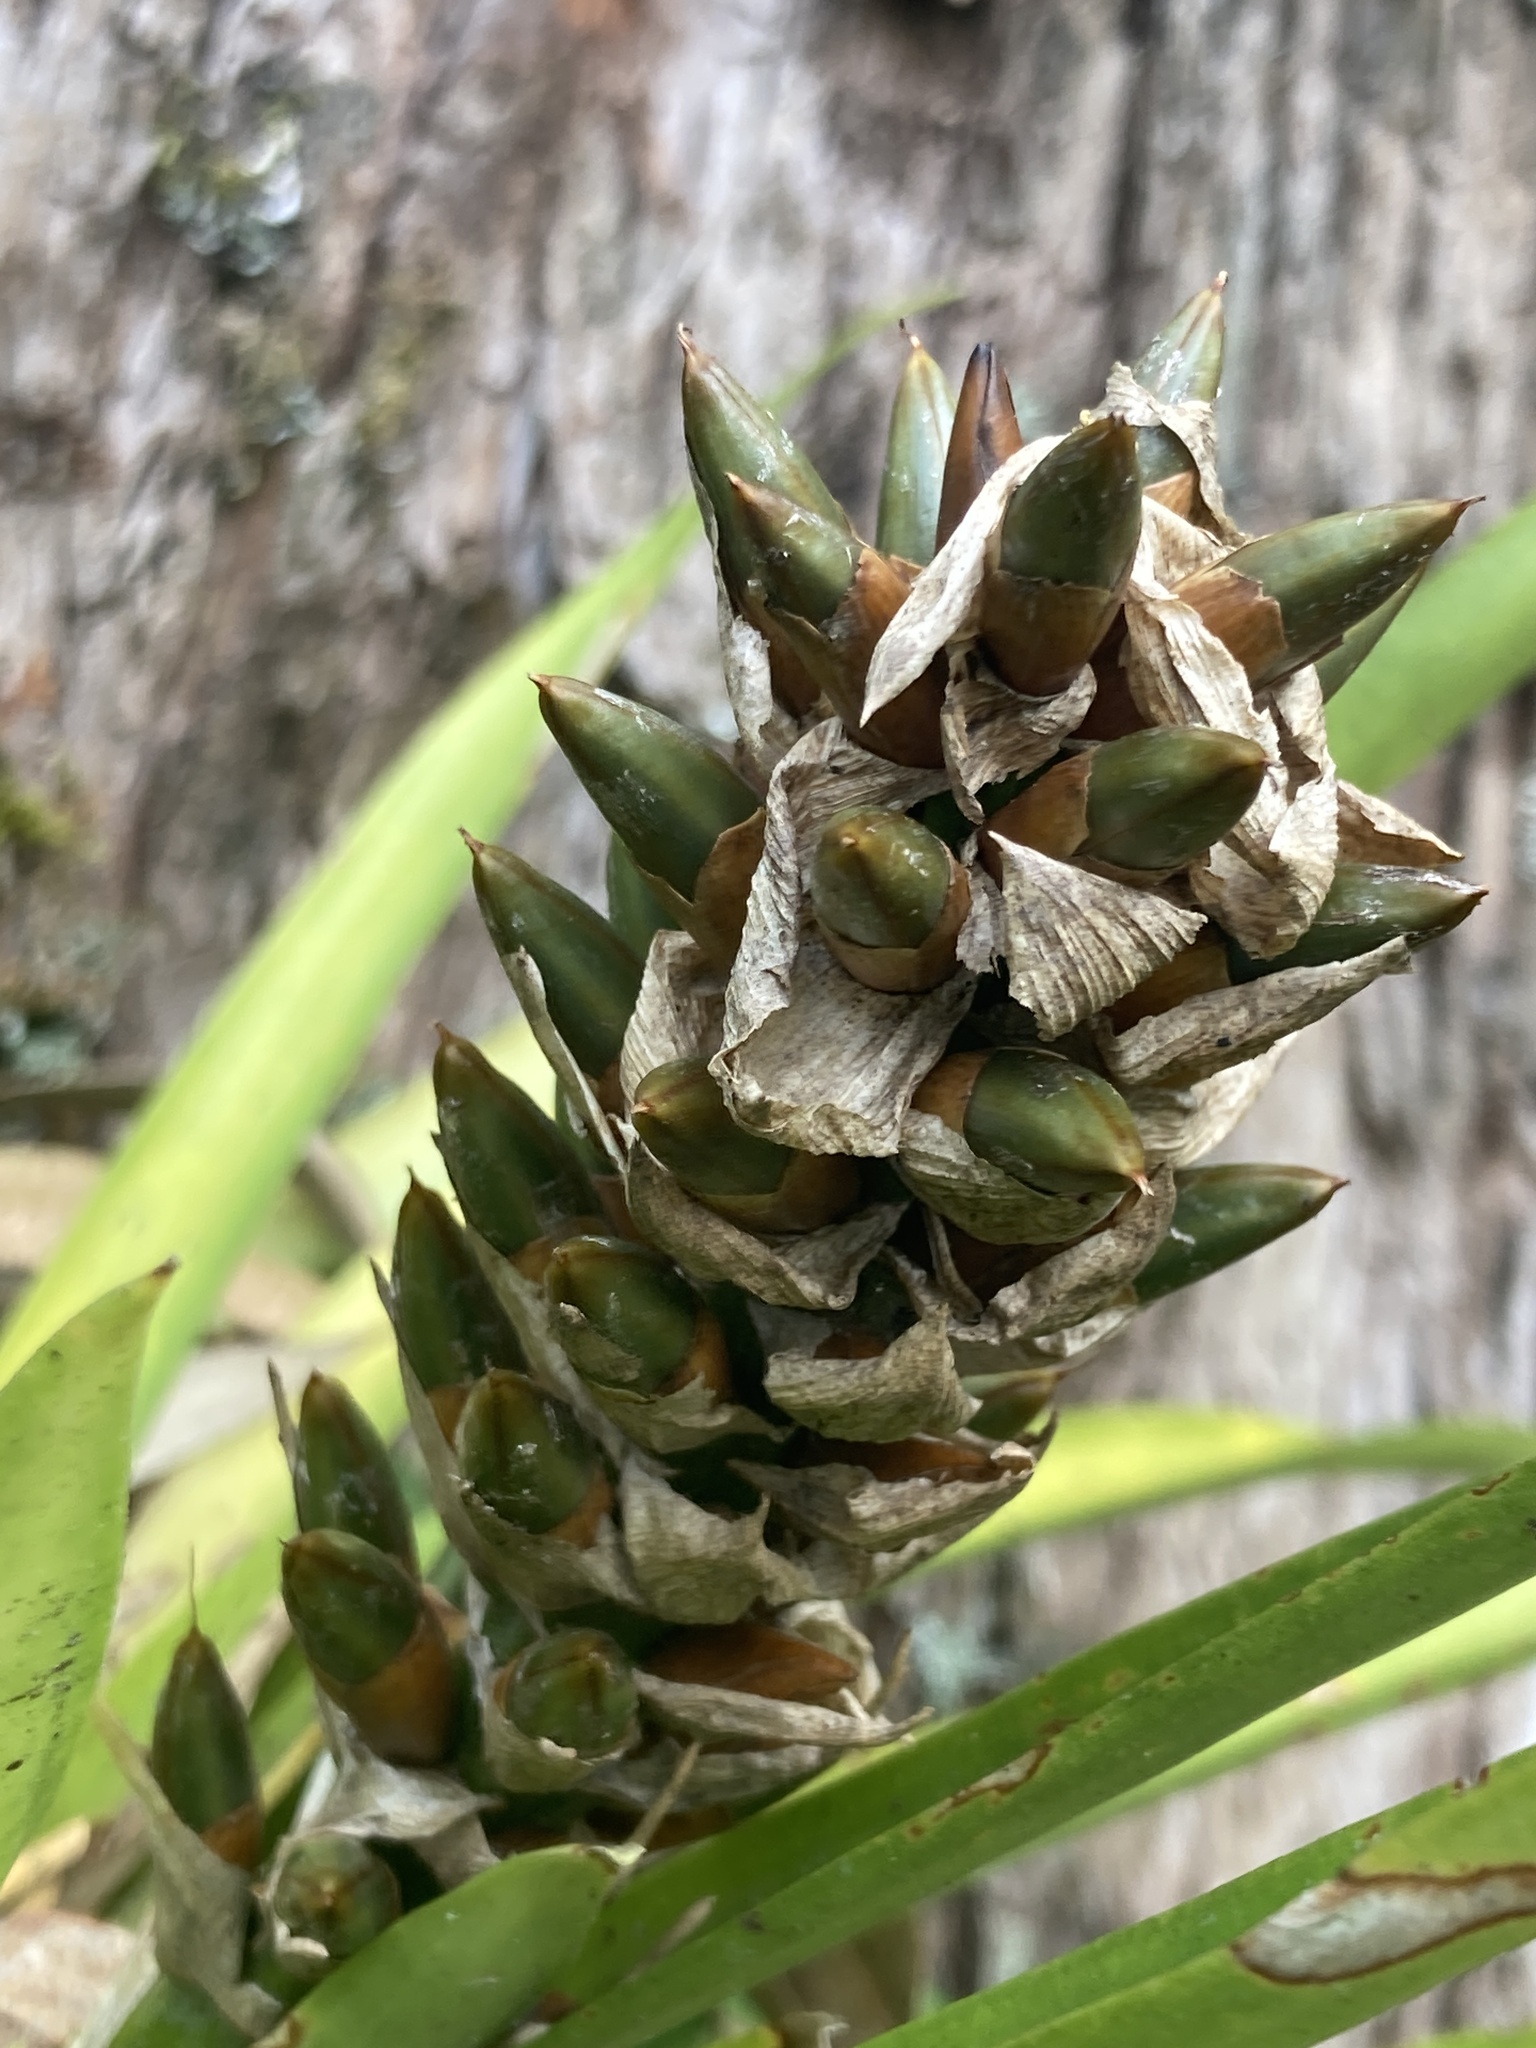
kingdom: Plantae
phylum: Tracheophyta
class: Liliopsida
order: Poales
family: Bromeliaceae
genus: Guzmania
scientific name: Guzmania monostachia
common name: West indian tufted airplant
